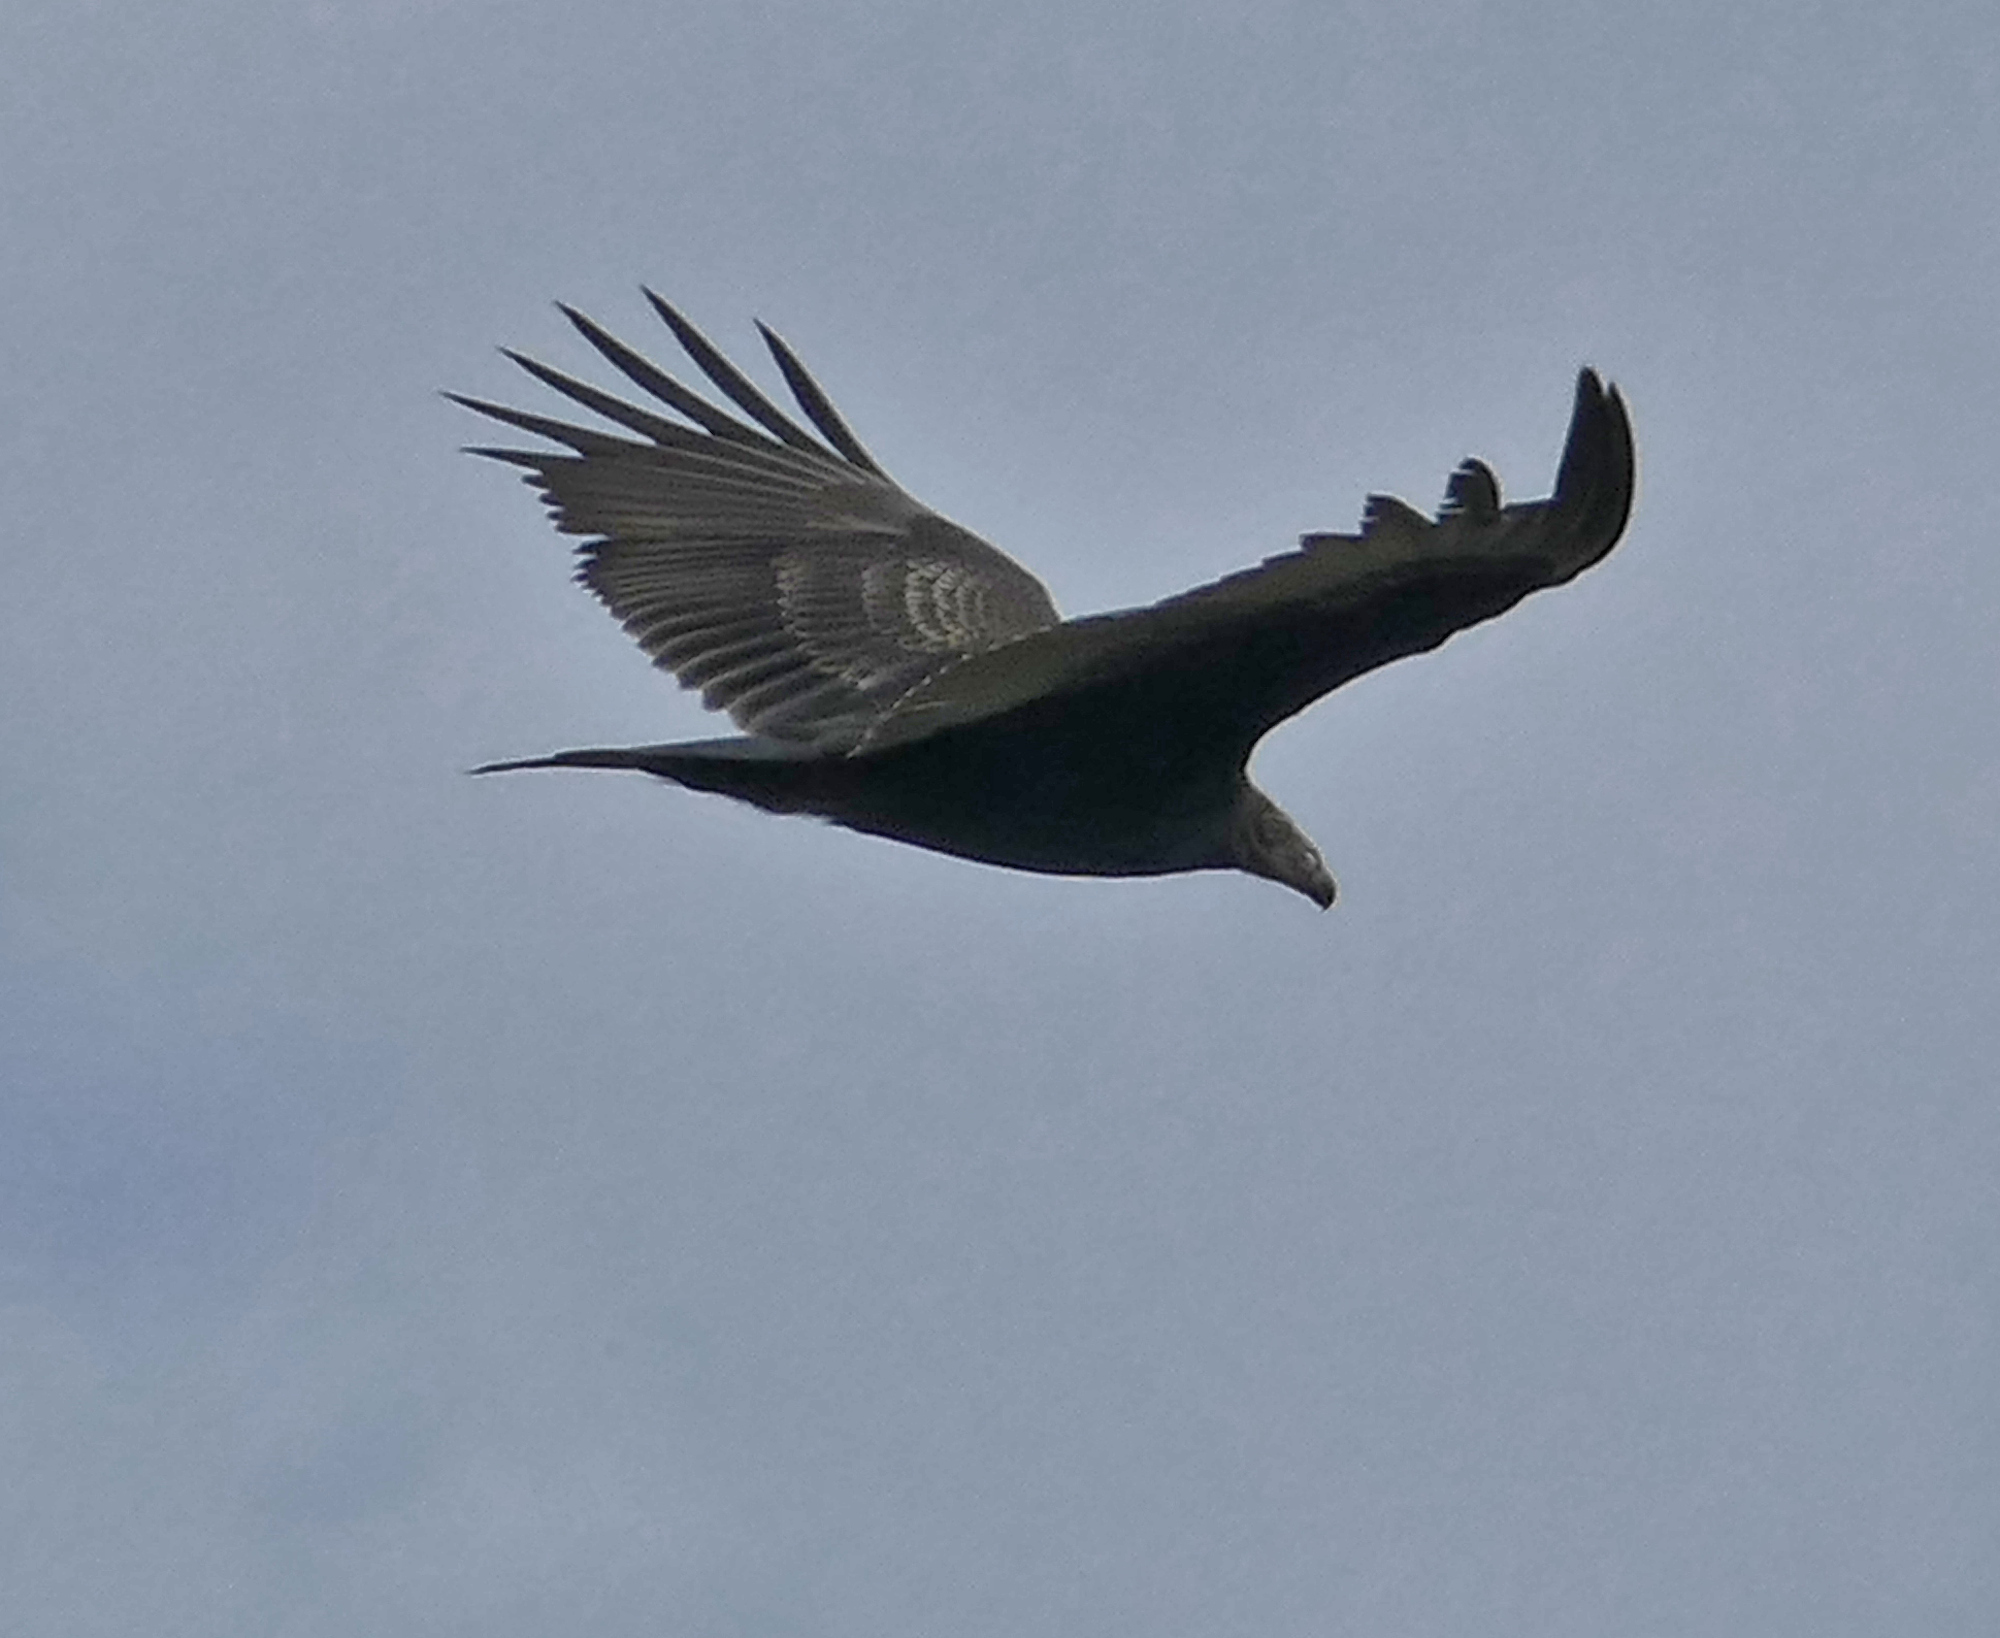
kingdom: Animalia
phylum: Chordata
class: Aves
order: Accipitriformes
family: Cathartidae
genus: Cathartes
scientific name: Cathartes aura
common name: Turkey vulture
